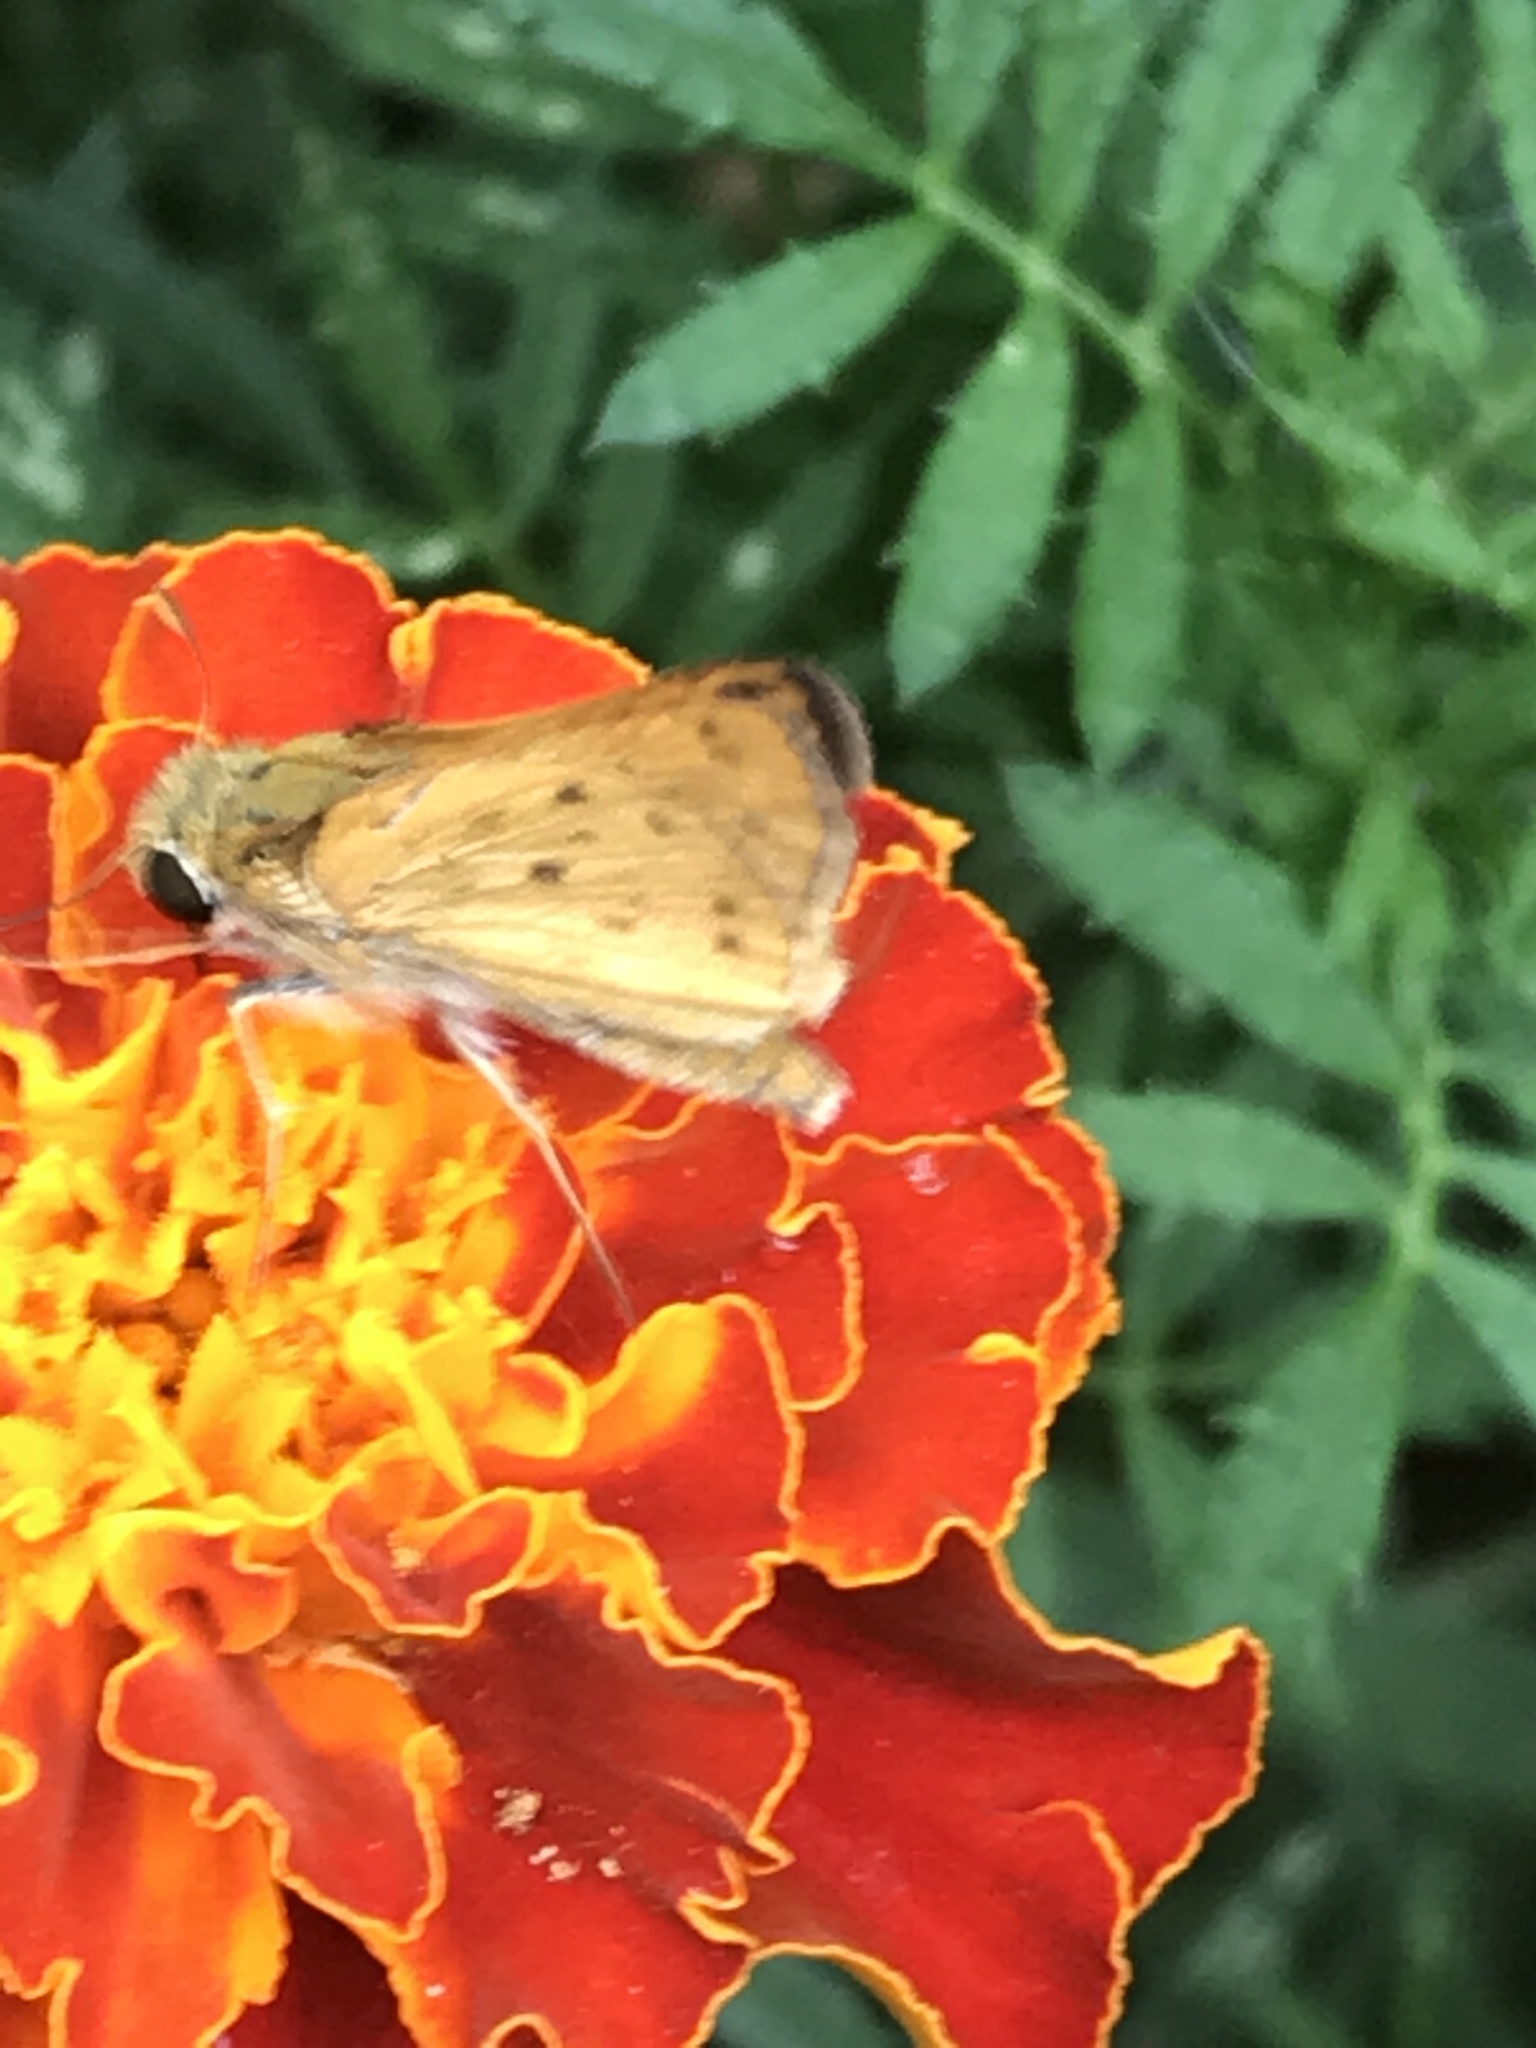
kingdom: Animalia
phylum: Arthropoda
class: Insecta
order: Lepidoptera
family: Hesperiidae
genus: Hylephila
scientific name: Hylephila phyleus
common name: Fiery skipper
